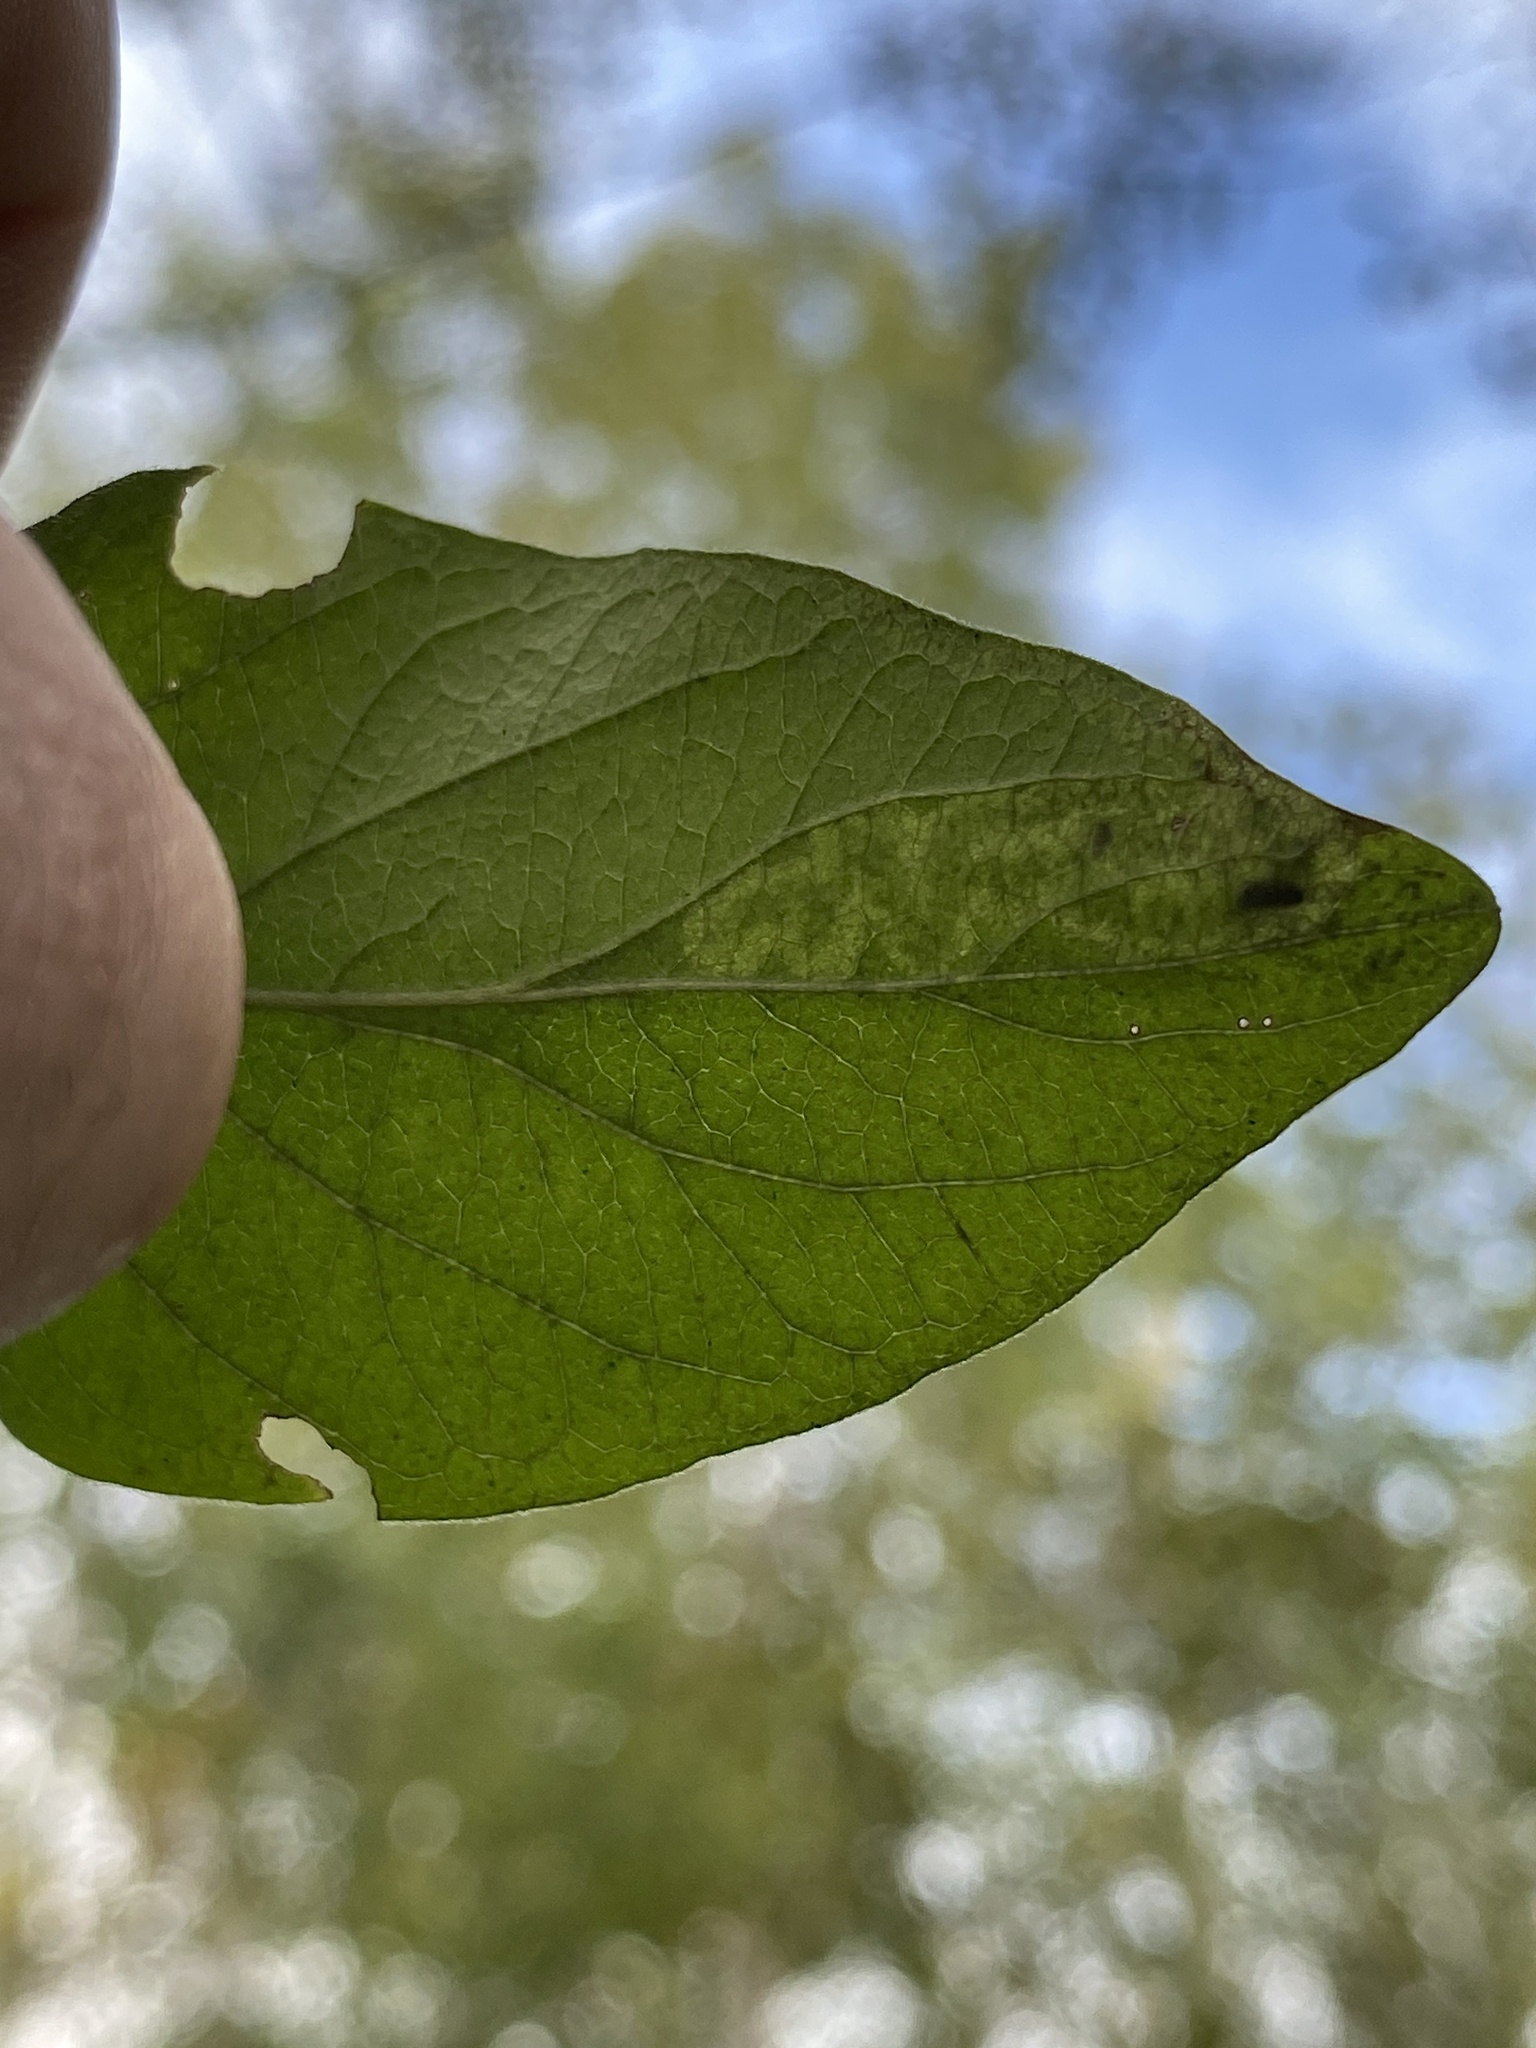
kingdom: Animalia
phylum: Arthropoda
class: Insecta
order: Diptera
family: Agromyzidae
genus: Aulagromyza
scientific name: Aulagromyza luteoscutellata
